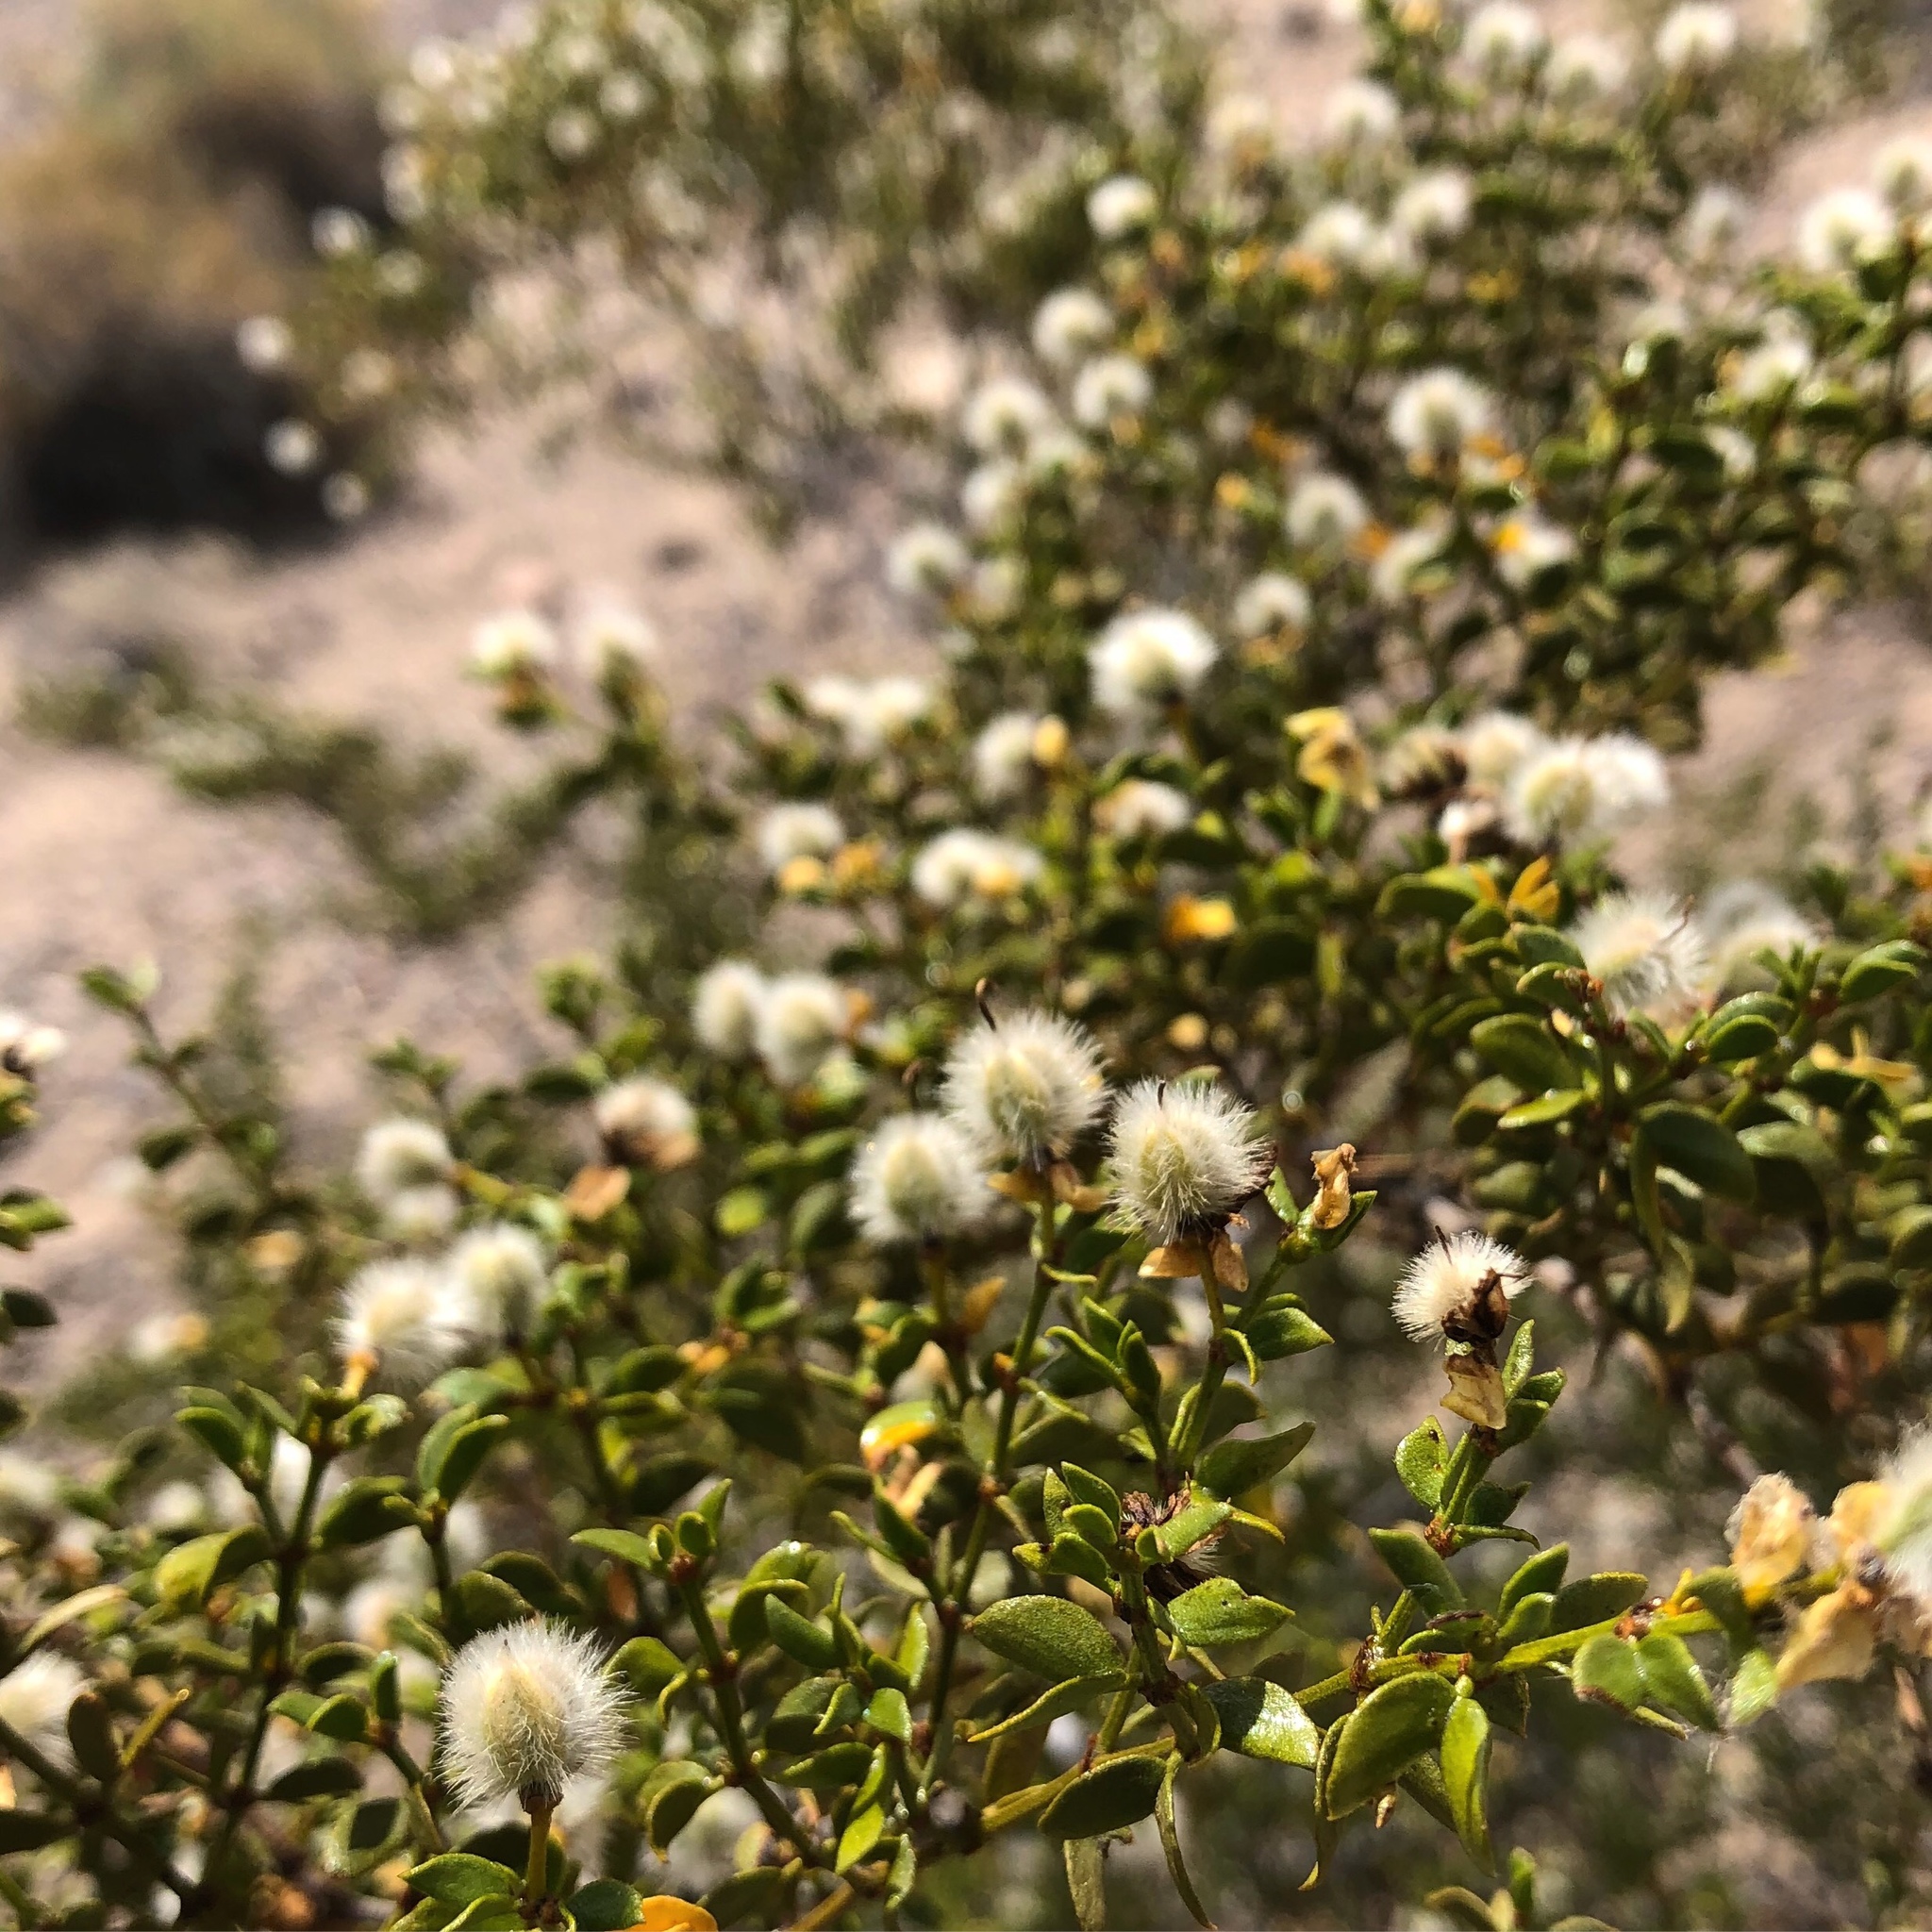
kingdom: Plantae
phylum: Tracheophyta
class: Magnoliopsida
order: Zygophyllales
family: Zygophyllaceae
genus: Larrea
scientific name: Larrea tridentata
